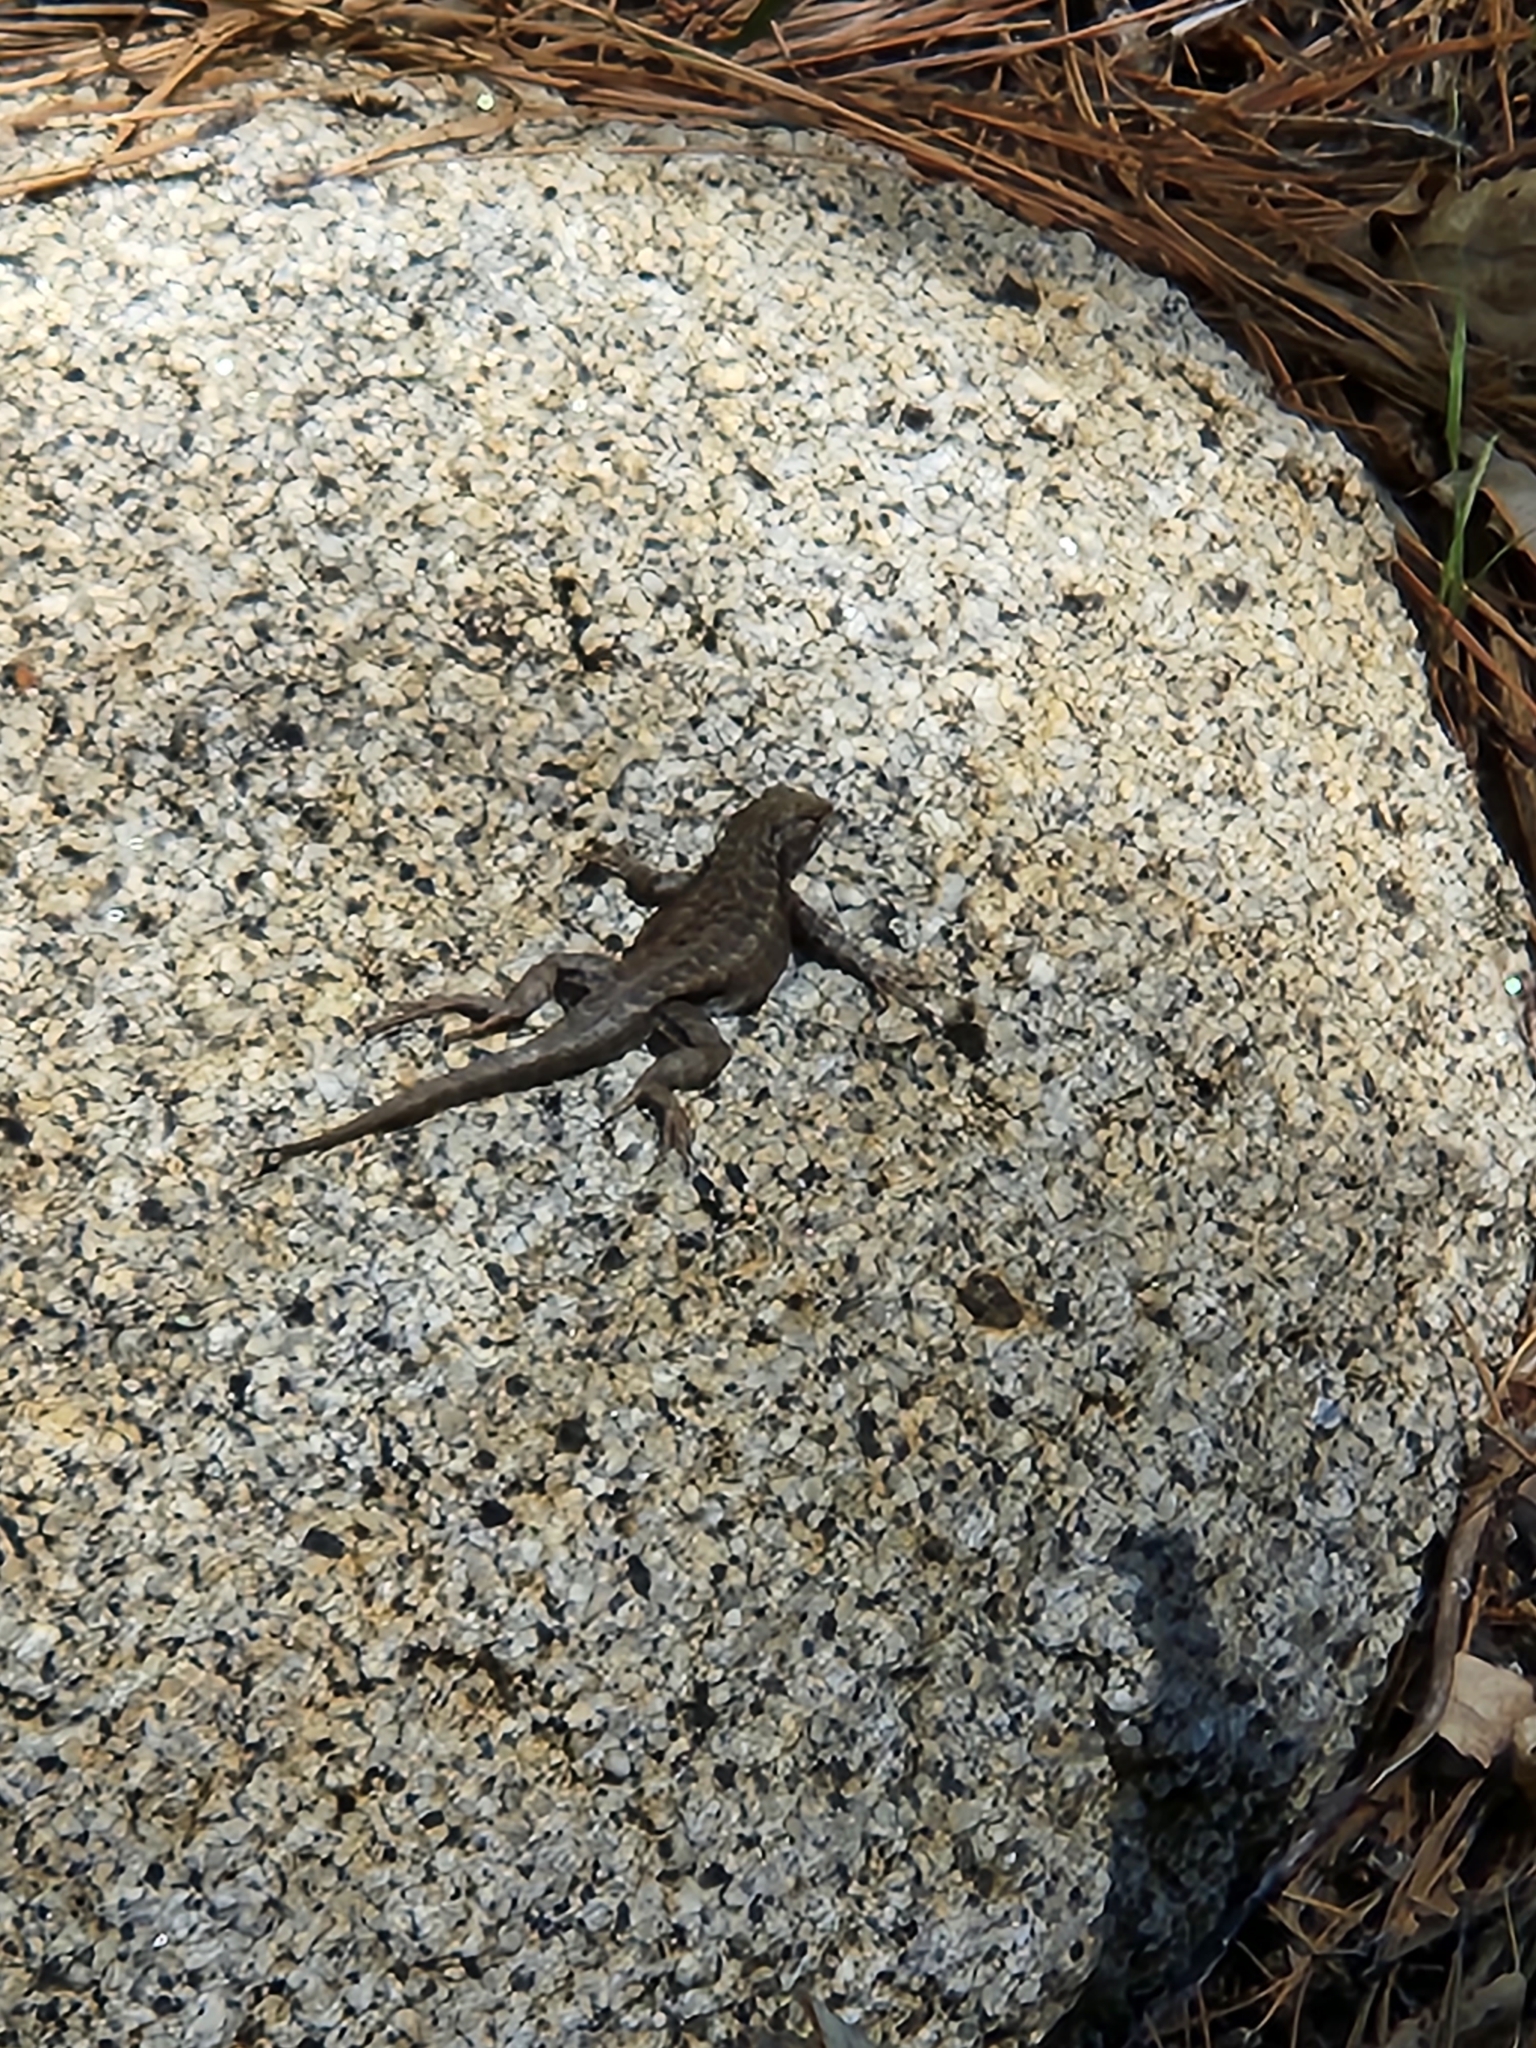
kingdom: Animalia
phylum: Chordata
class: Squamata
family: Phrynosomatidae
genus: Sceloporus
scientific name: Sceloporus graciosus
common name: Sagebrush lizard
